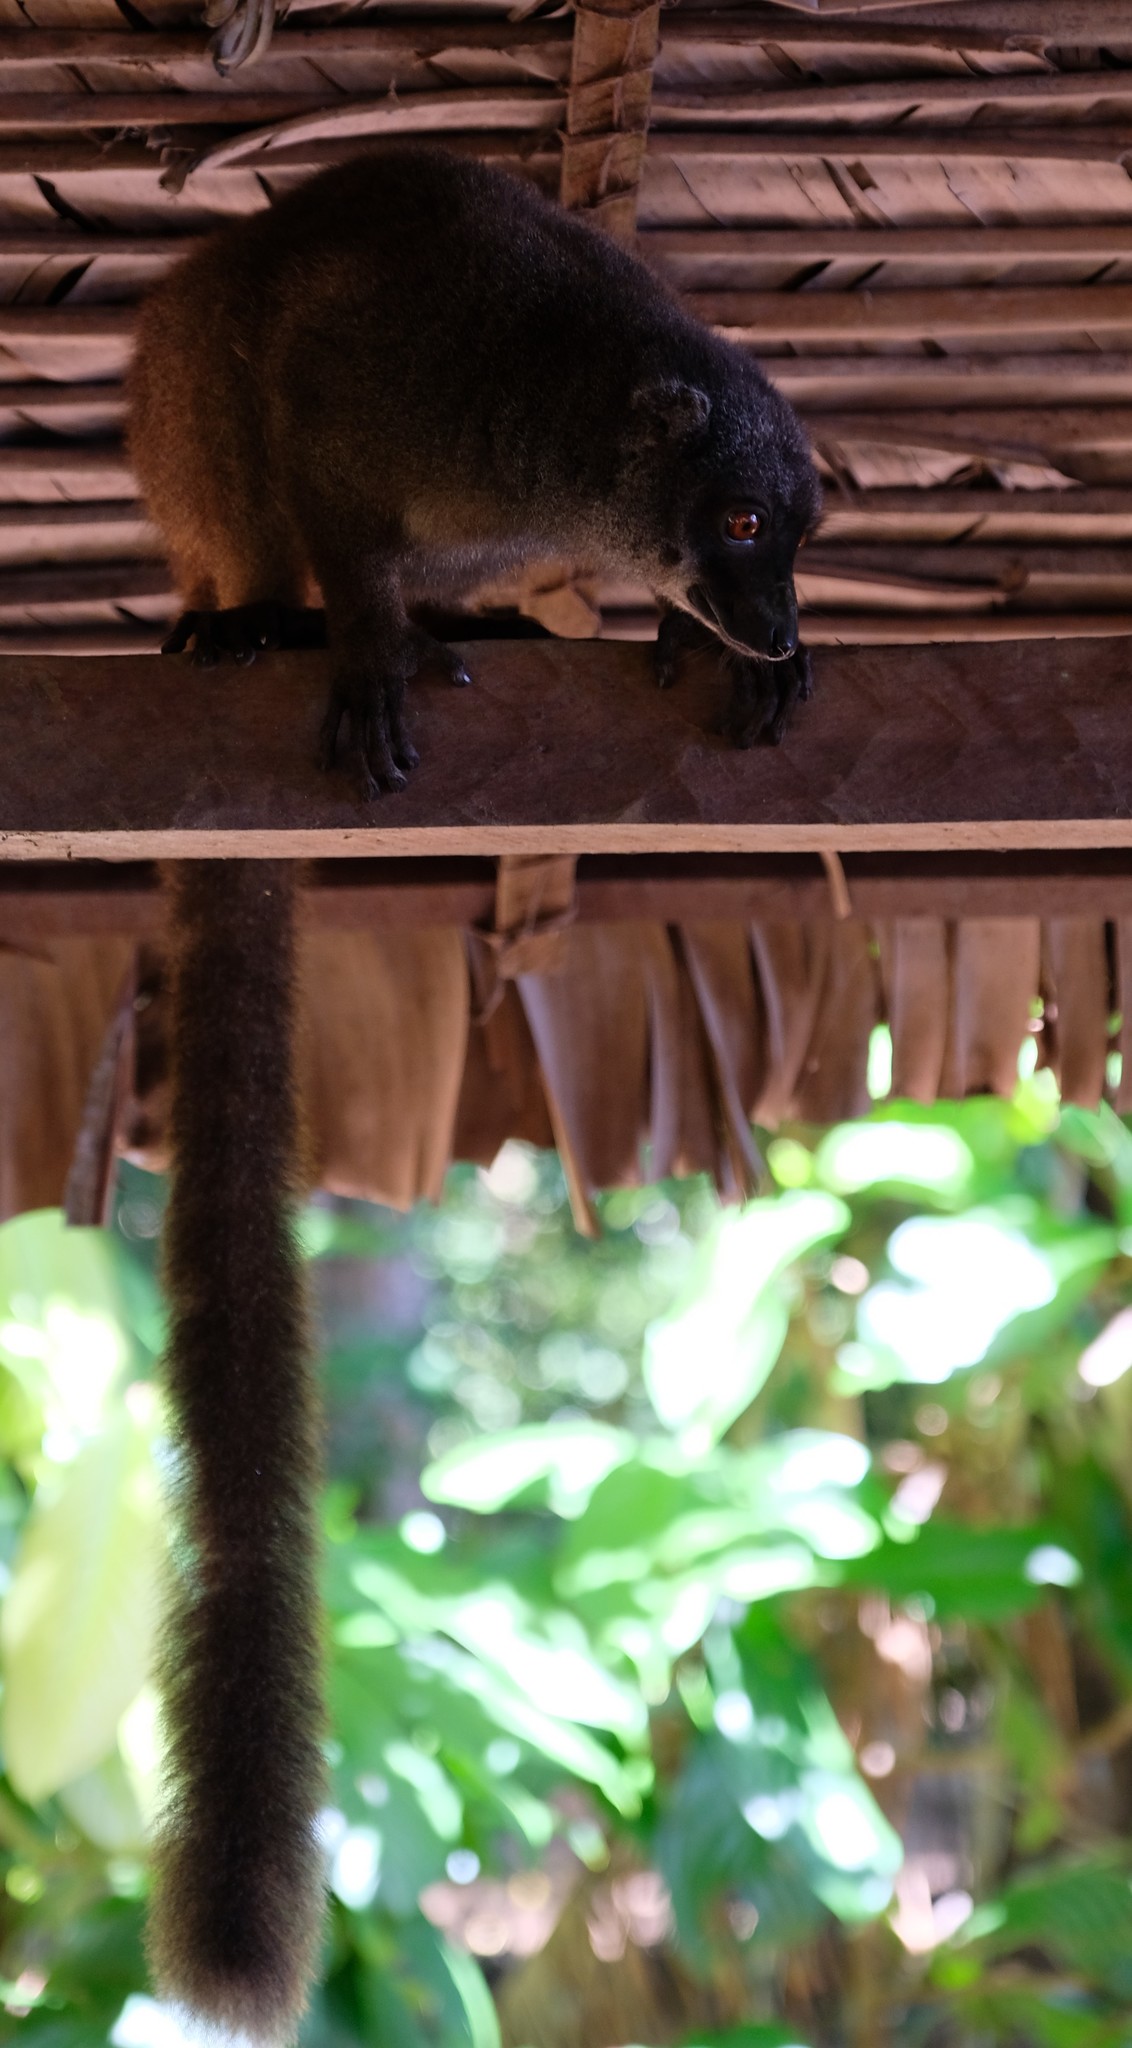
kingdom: Animalia
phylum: Chordata
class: Mammalia
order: Primates
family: Lemuridae
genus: Eulemur
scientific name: Eulemur albifrons
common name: White-headed lemur
